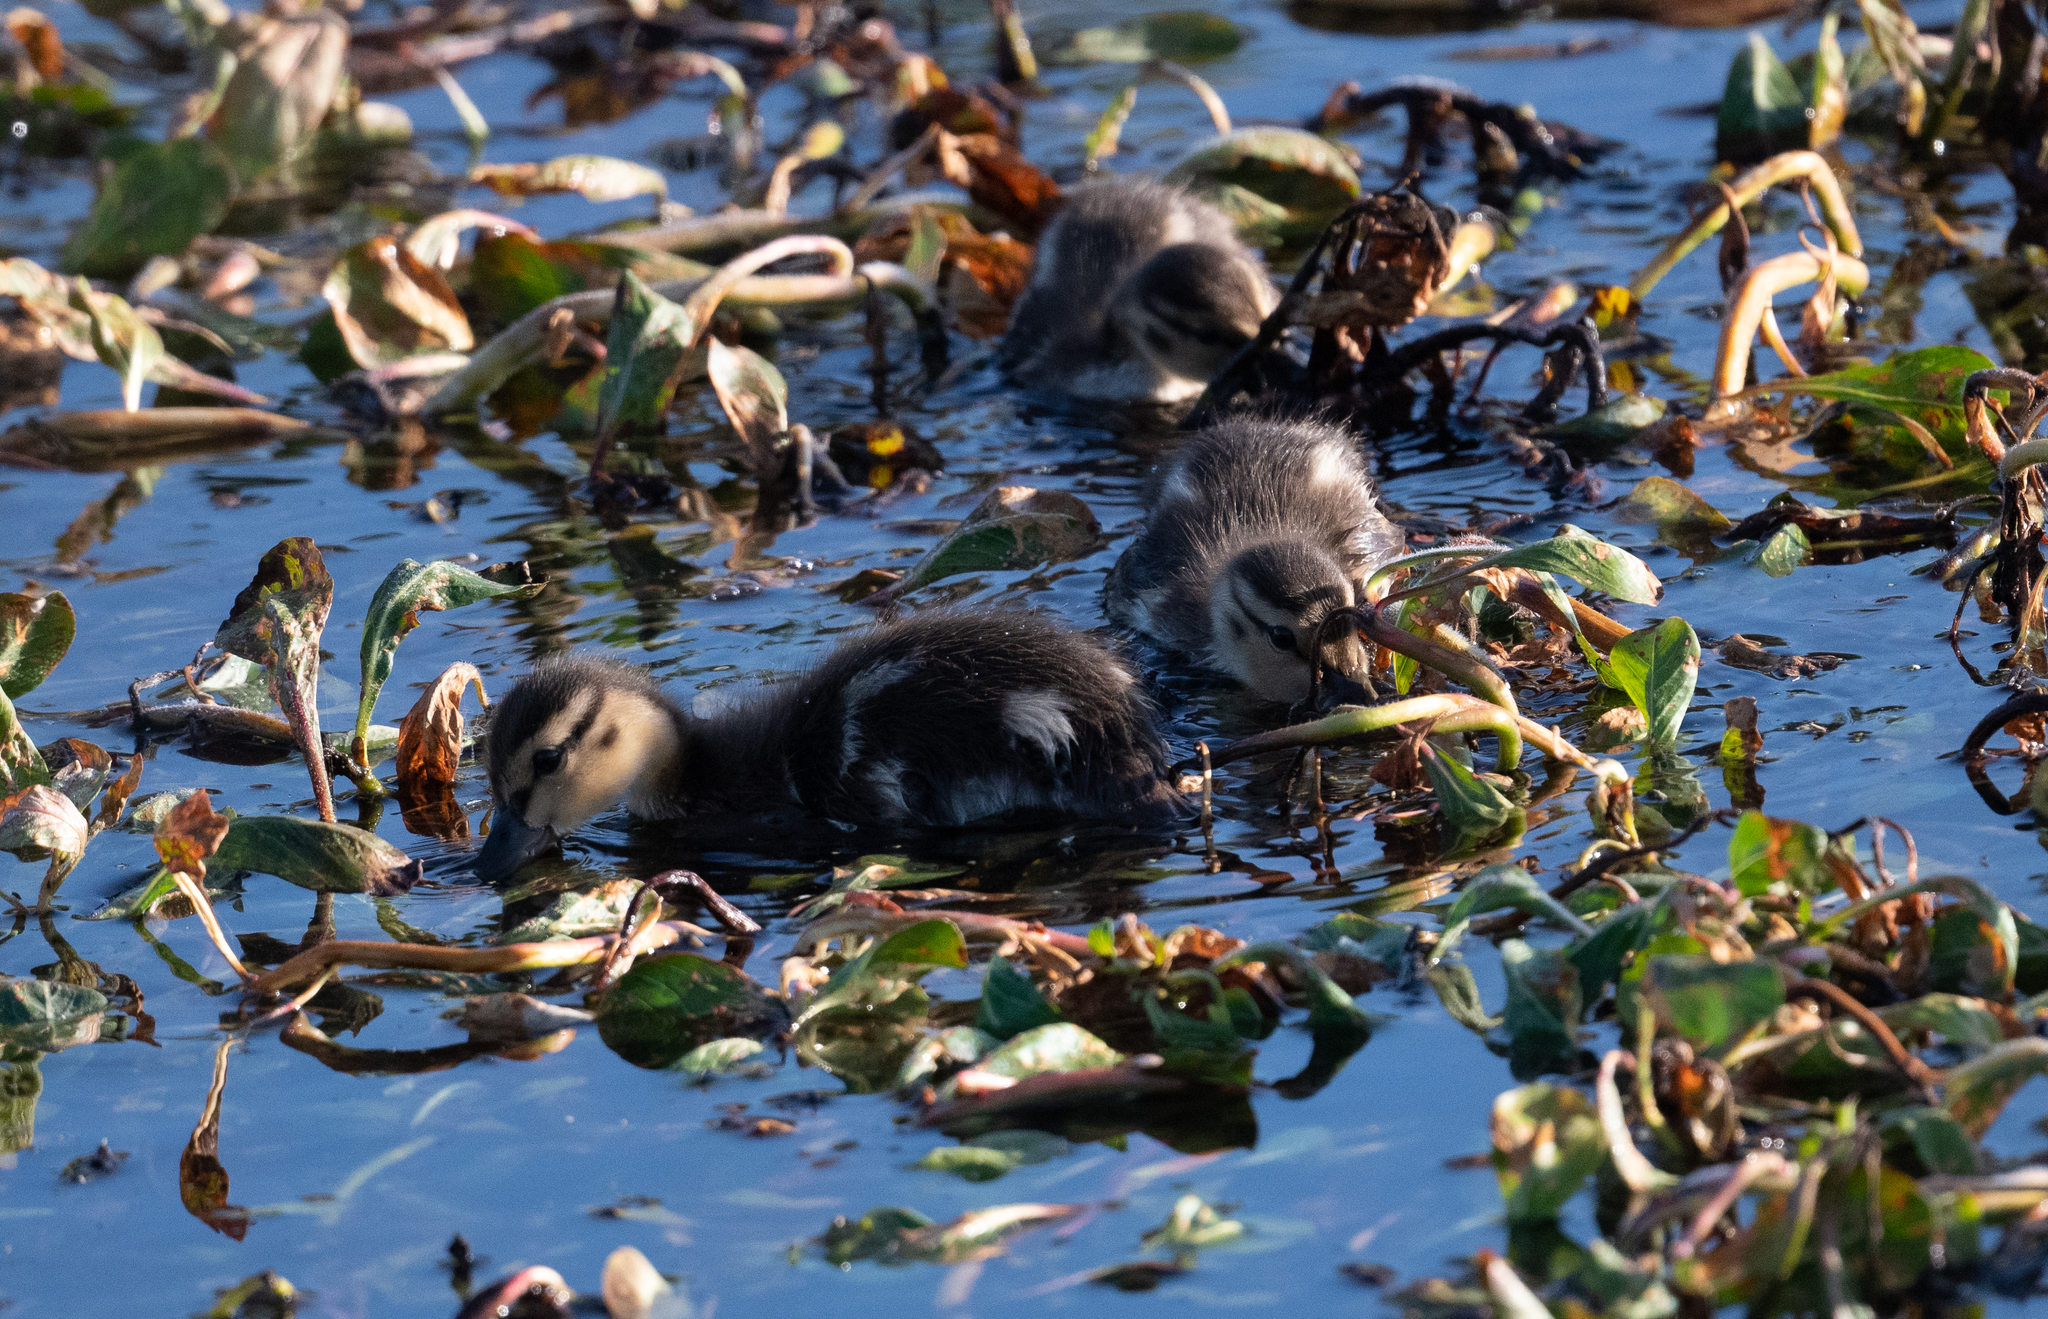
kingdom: Animalia
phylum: Chordata
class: Aves
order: Anseriformes
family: Anatidae
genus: Anas
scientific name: Anas platyrhynchos
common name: Mallard
